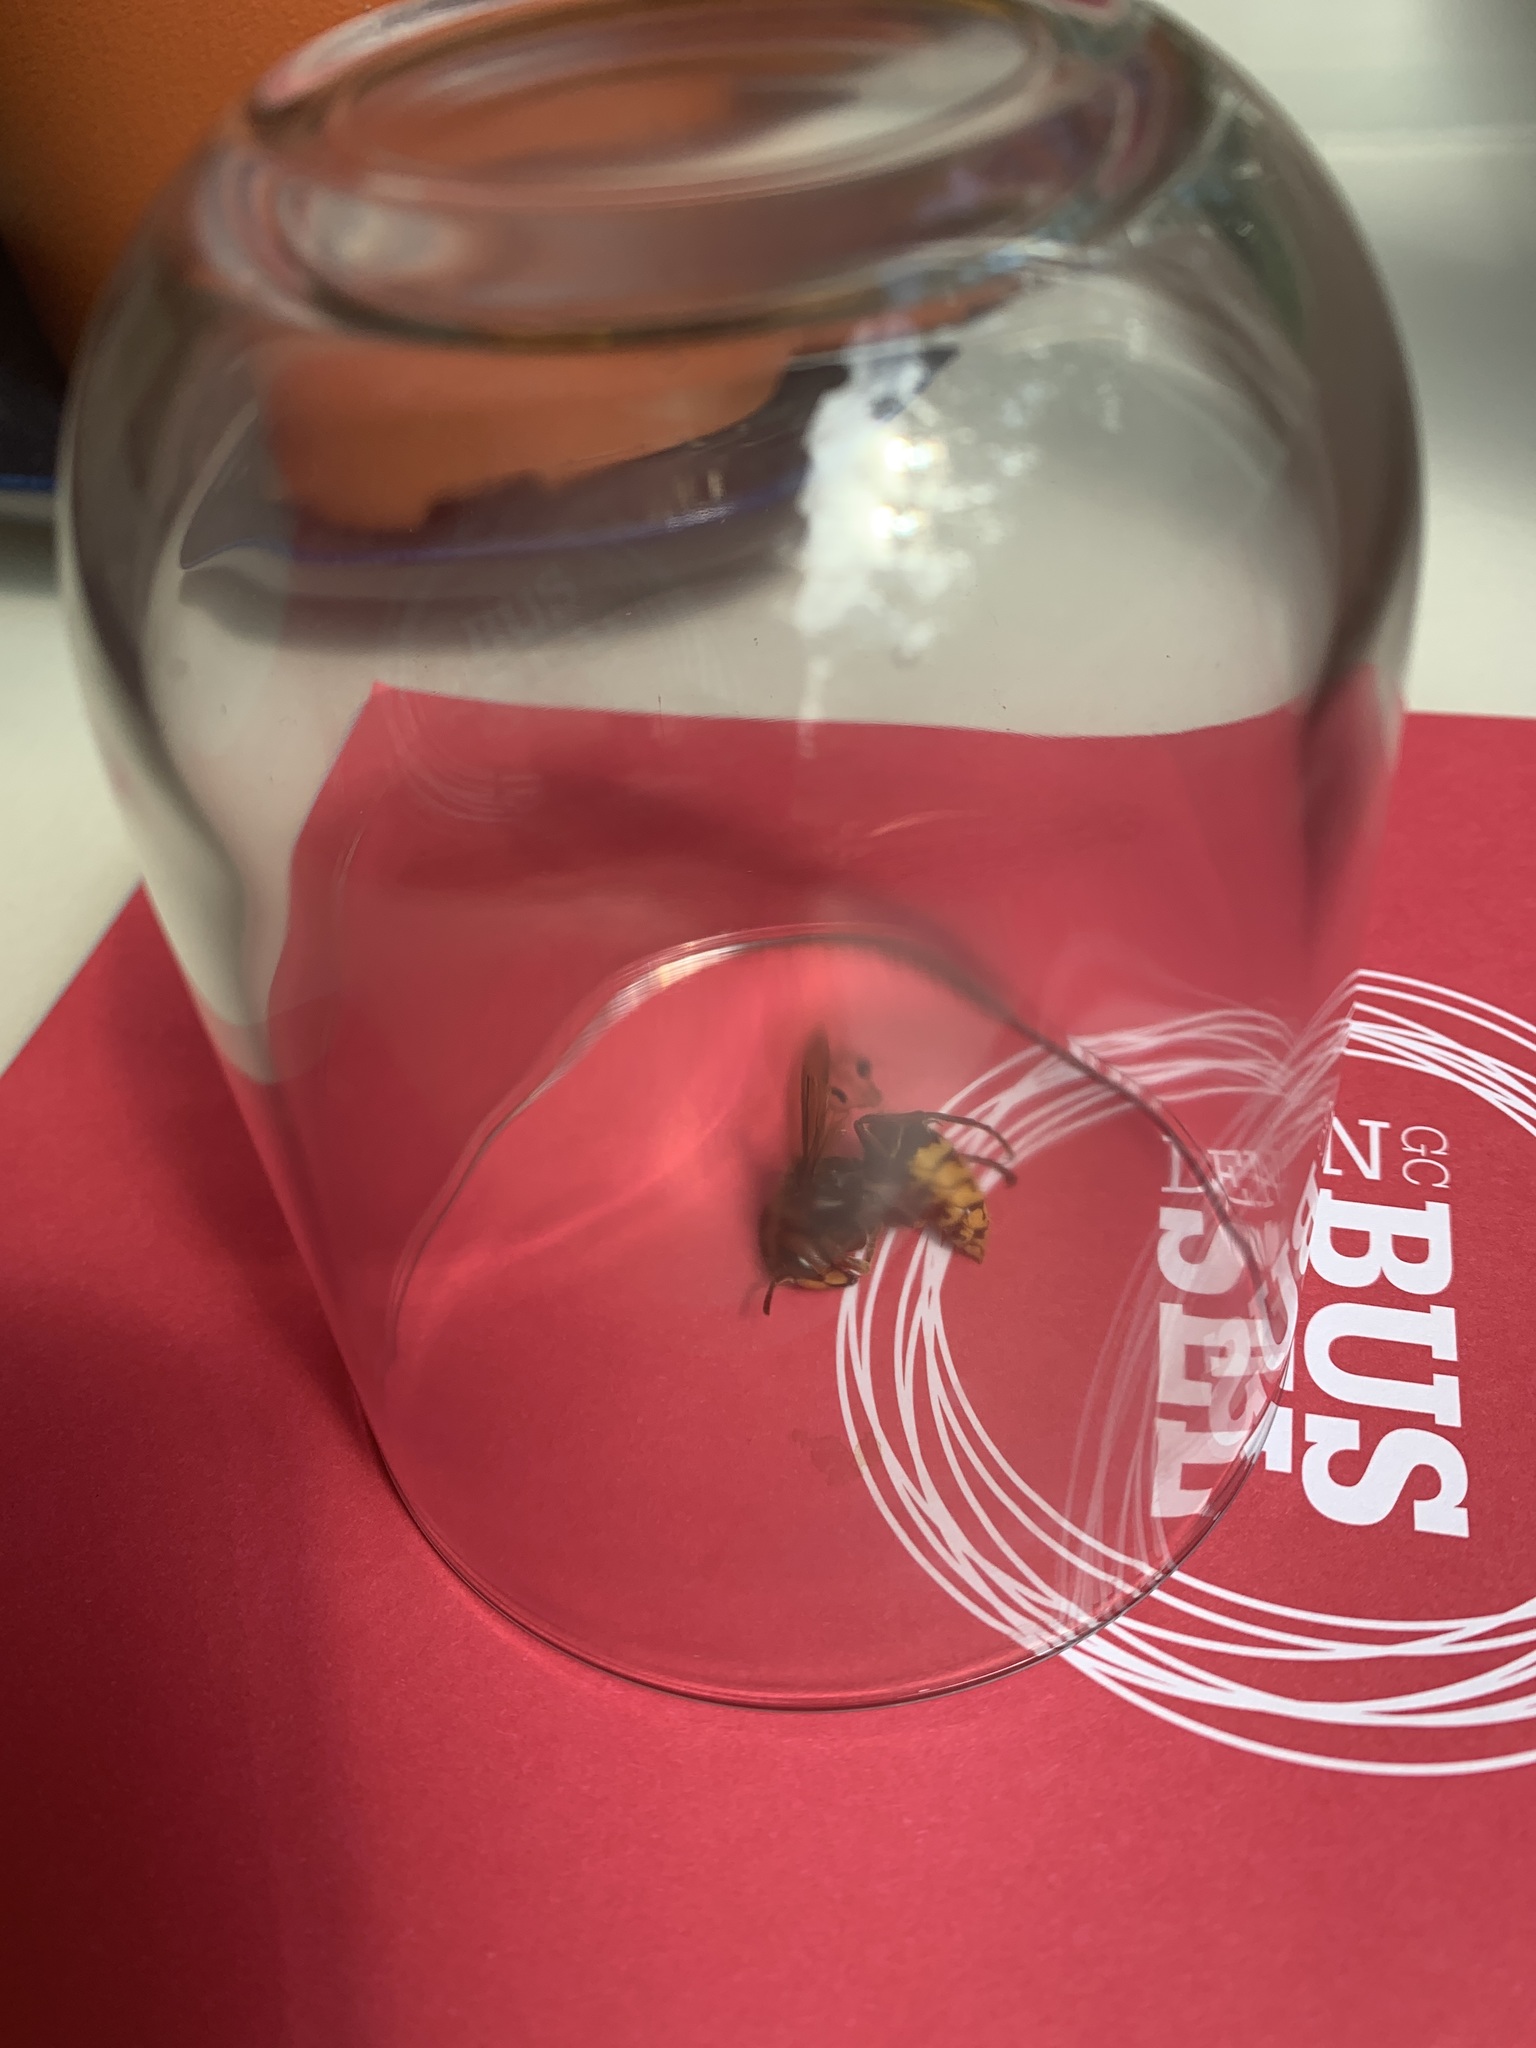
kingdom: Animalia
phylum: Arthropoda
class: Insecta
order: Hymenoptera
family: Vespidae
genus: Vespa
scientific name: Vespa crabro
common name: Hornet
